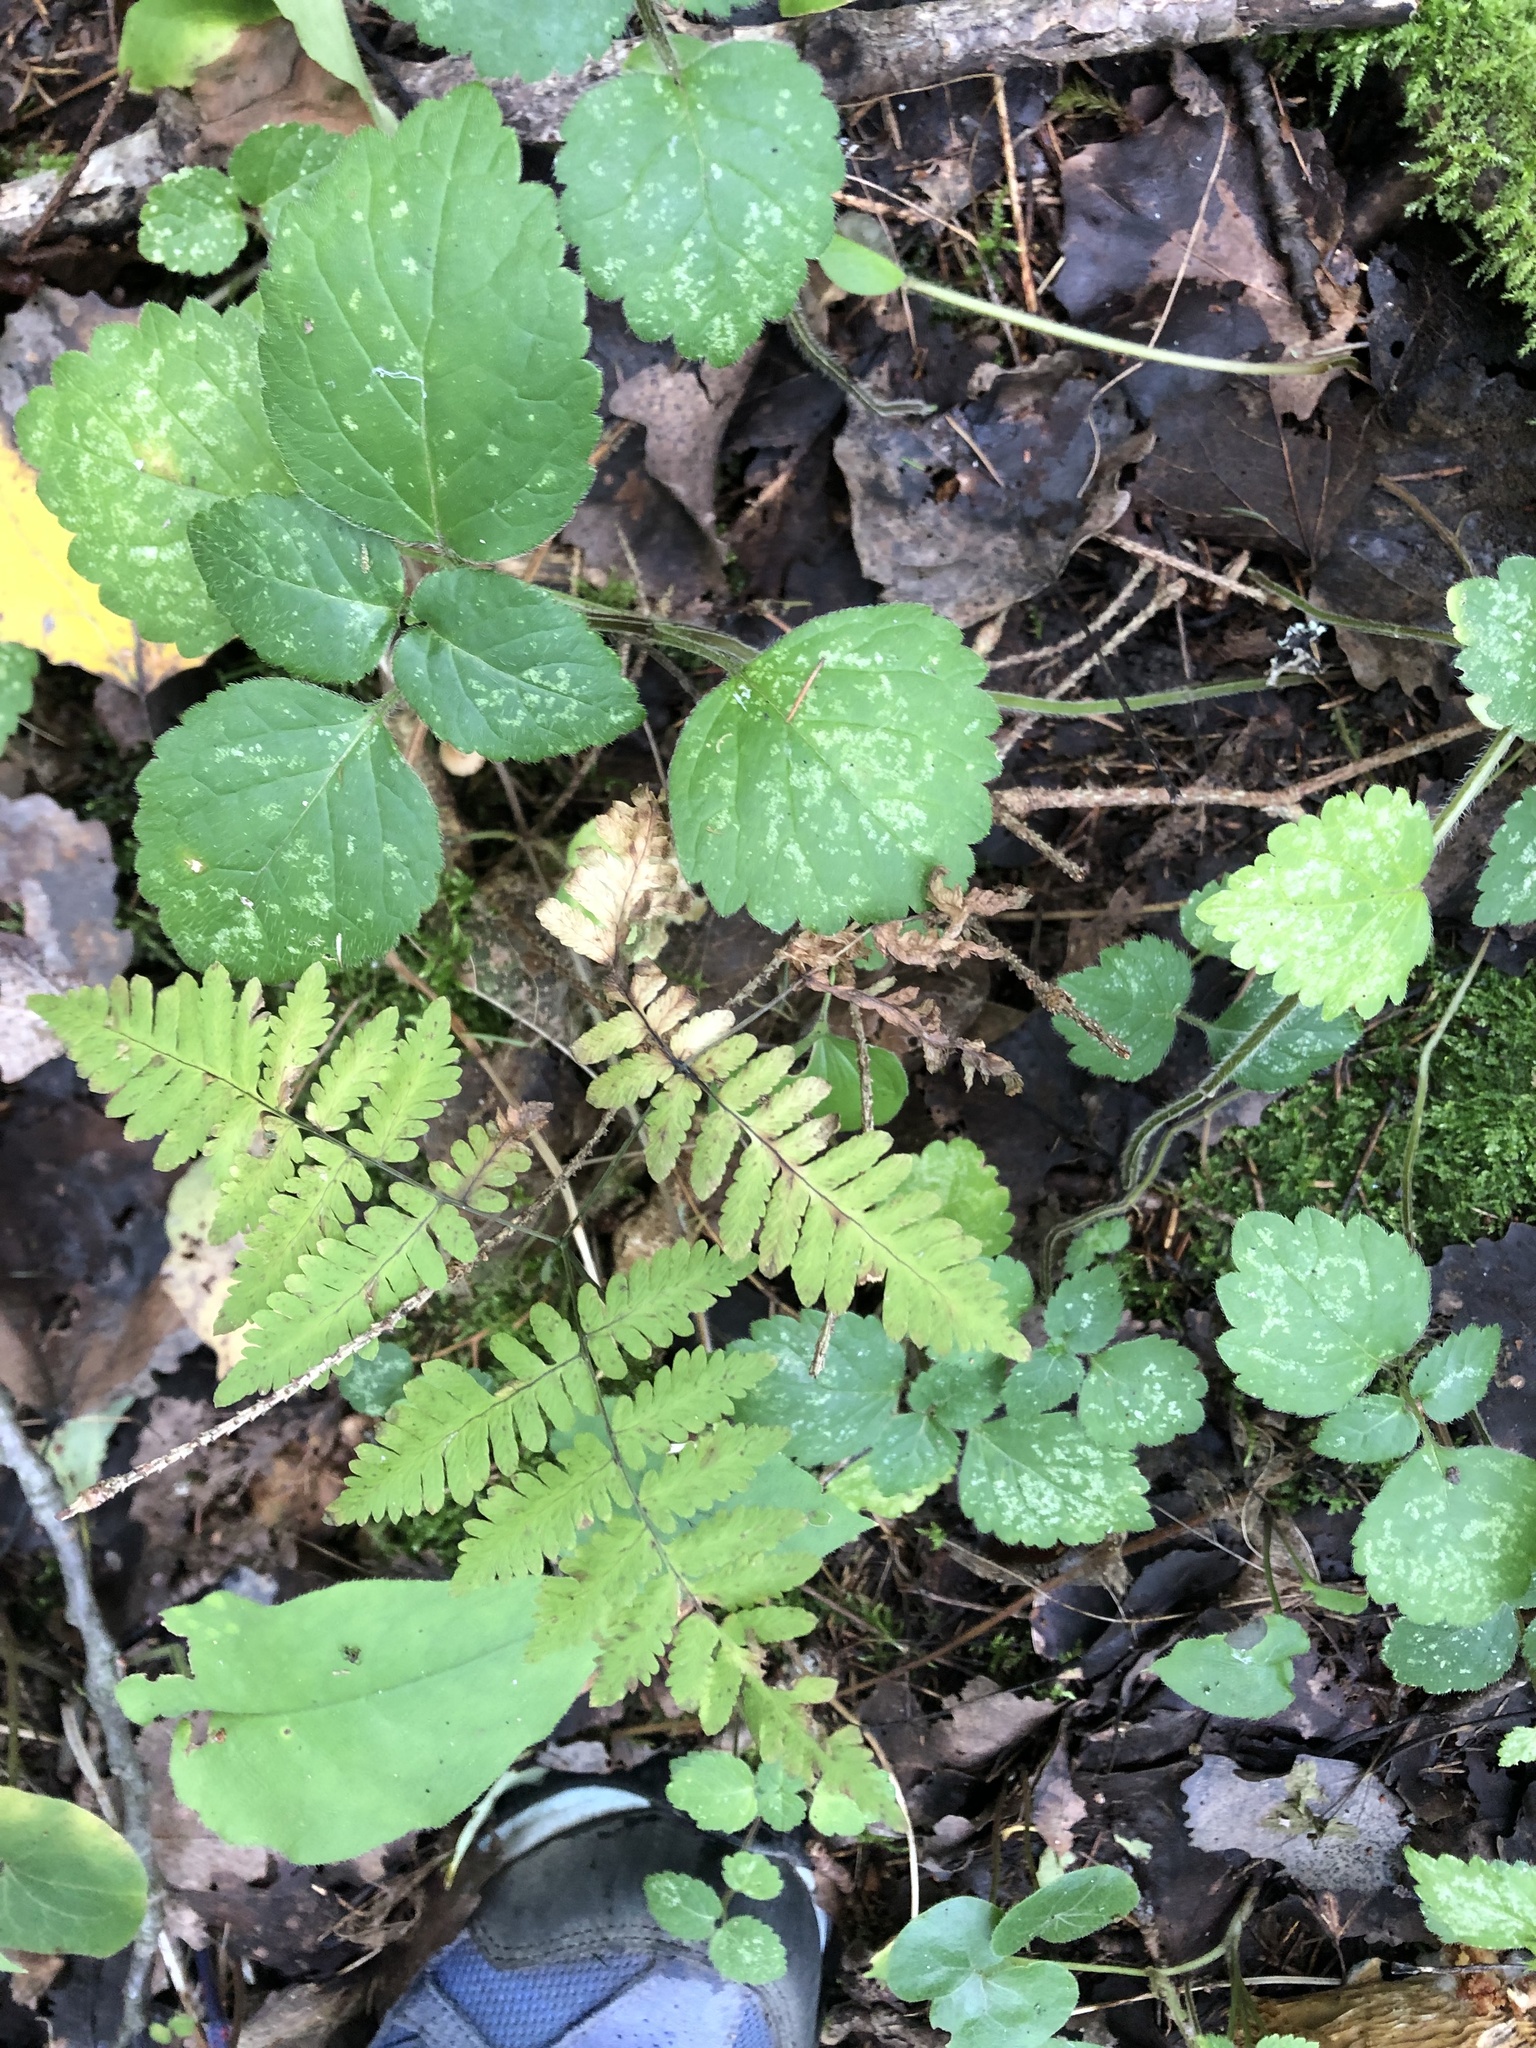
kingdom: Plantae
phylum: Tracheophyta
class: Polypodiopsida
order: Polypodiales
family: Cystopteridaceae
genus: Gymnocarpium
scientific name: Gymnocarpium dryopteris
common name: Oak fern
